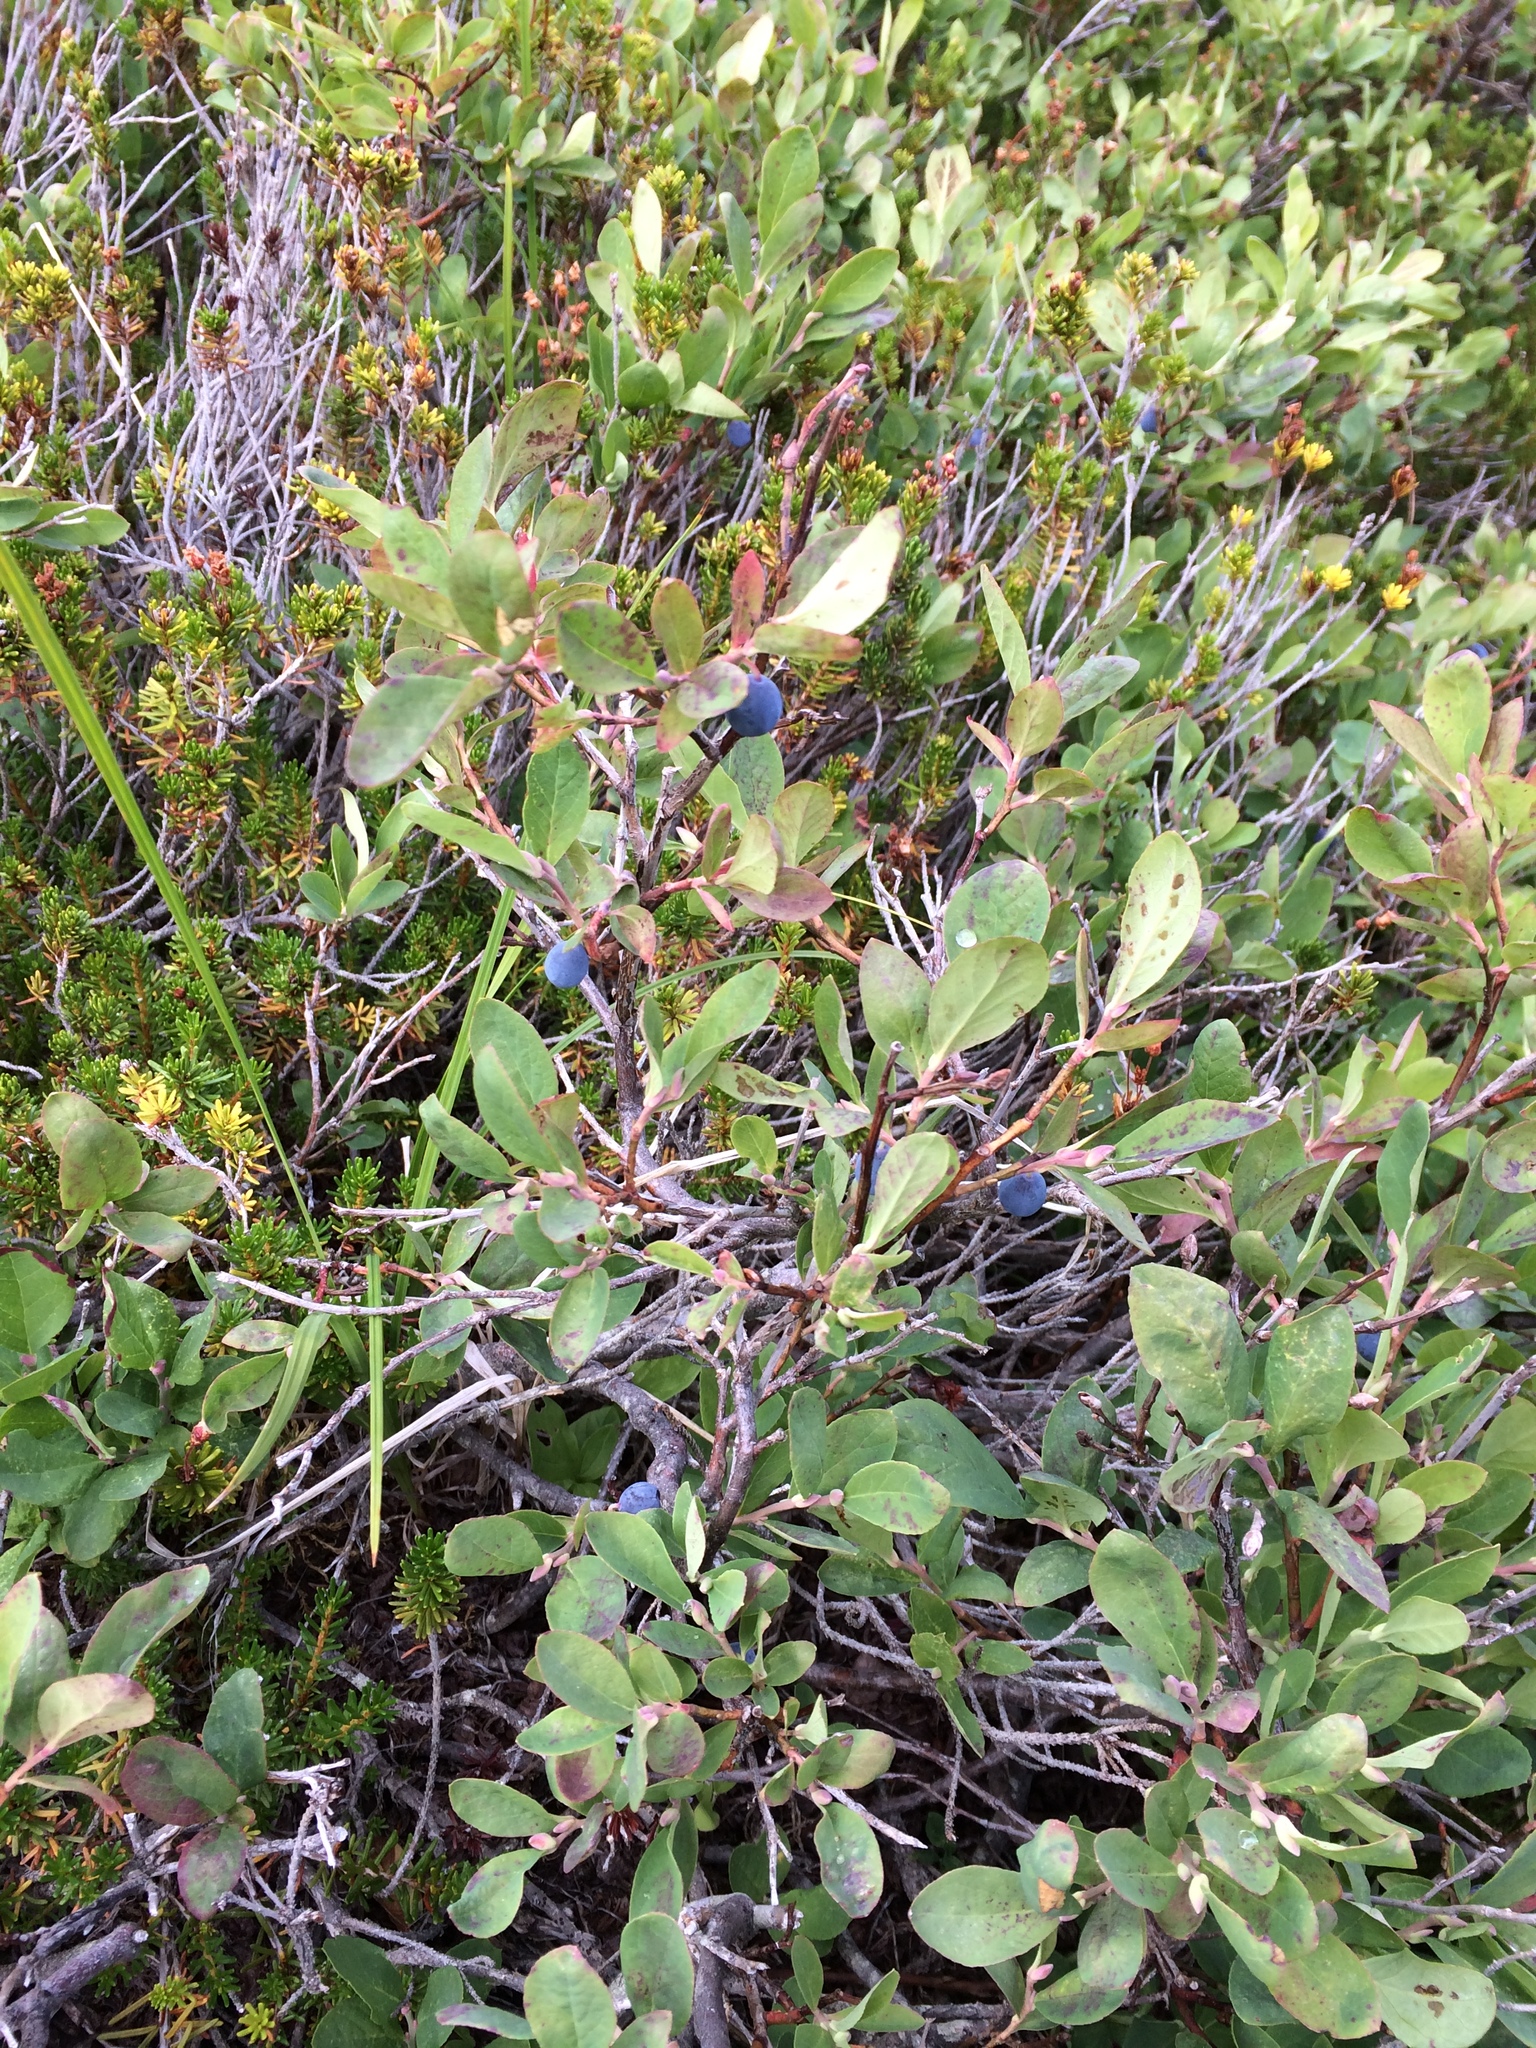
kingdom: Plantae
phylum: Tracheophyta
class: Magnoliopsida
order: Ericales
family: Ericaceae
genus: Vaccinium
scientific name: Vaccinium deliciosum
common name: Cascade bilberry
